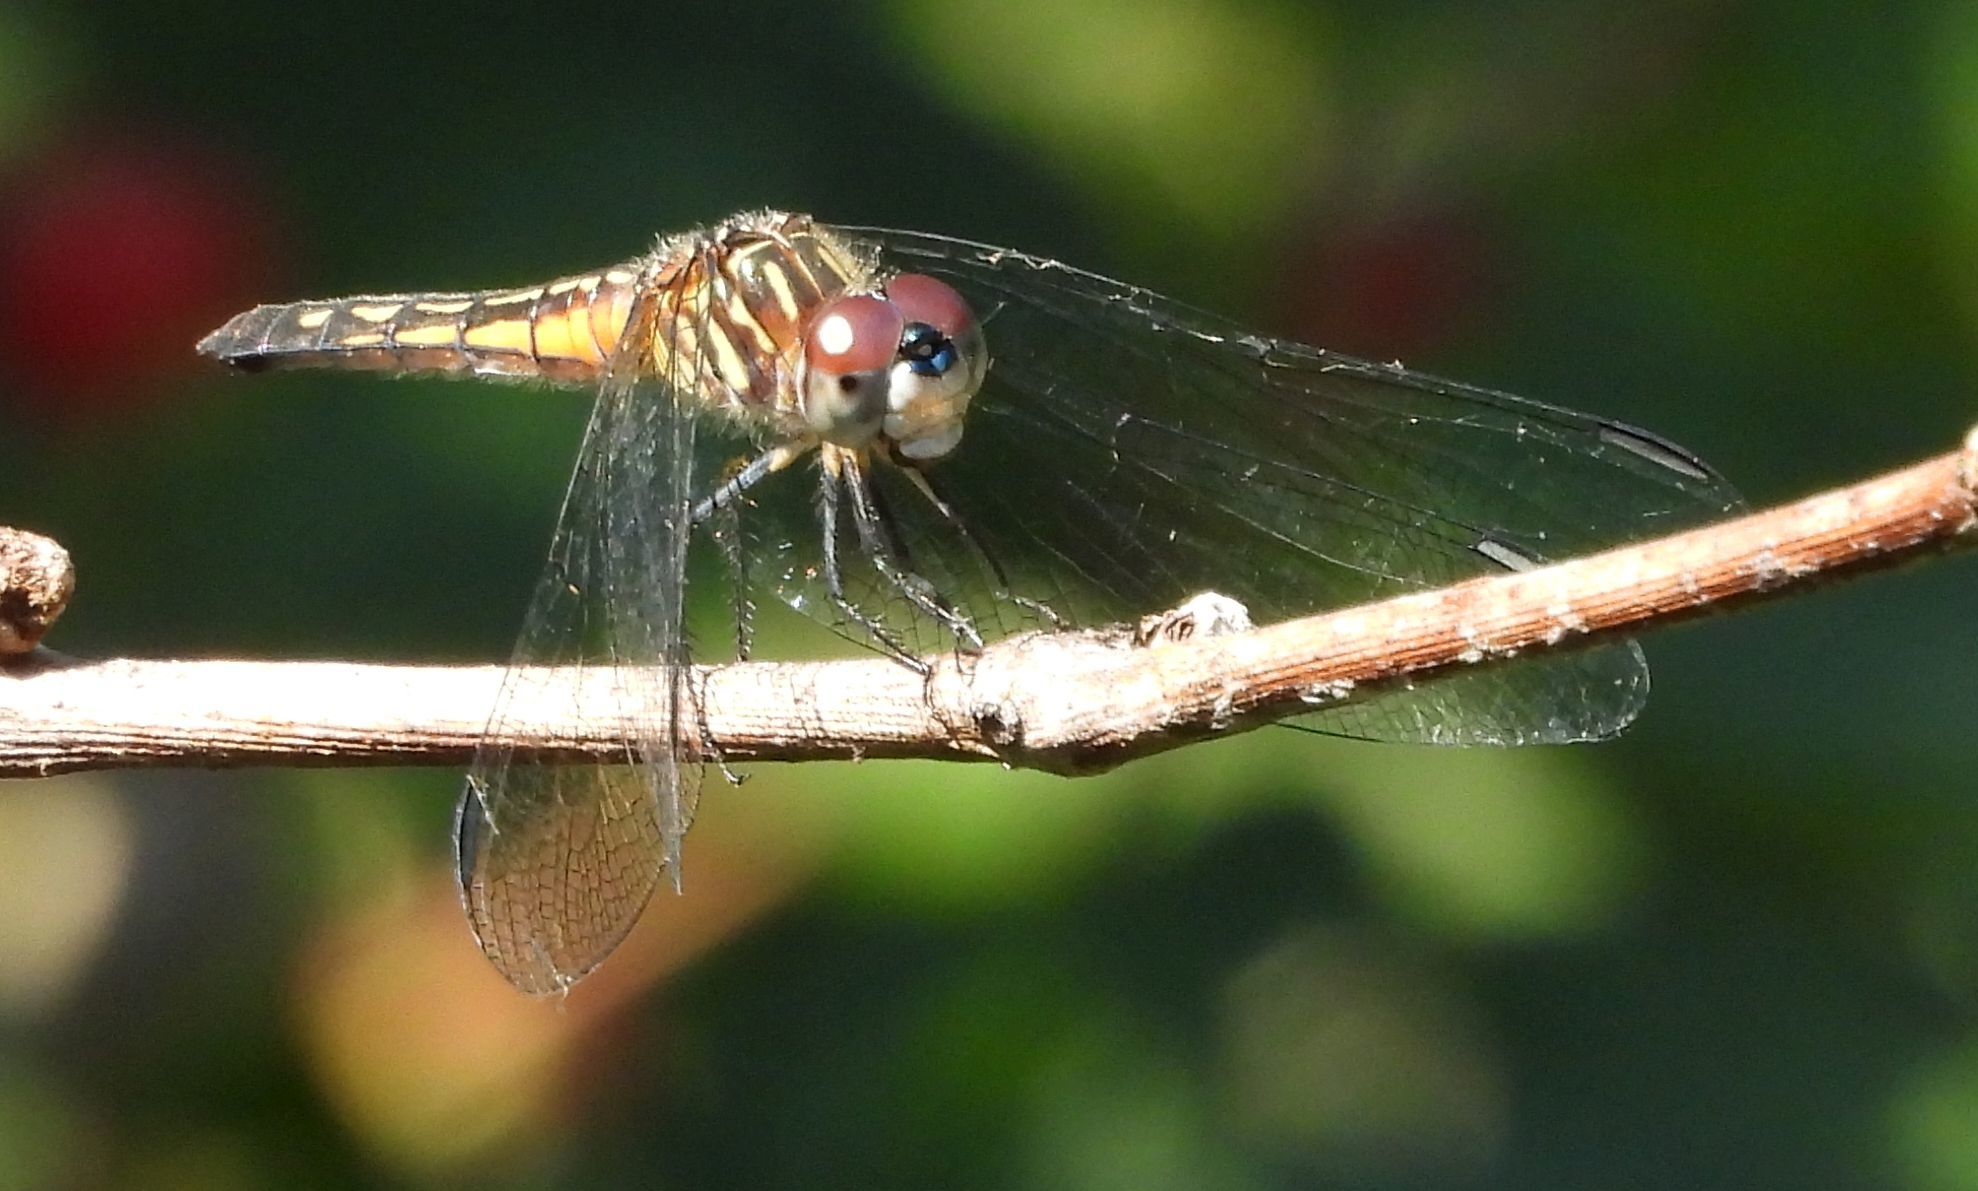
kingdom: Animalia
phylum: Arthropoda
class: Insecta
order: Odonata
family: Libellulidae
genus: Pachydiplax
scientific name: Pachydiplax longipennis
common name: Blue dasher
